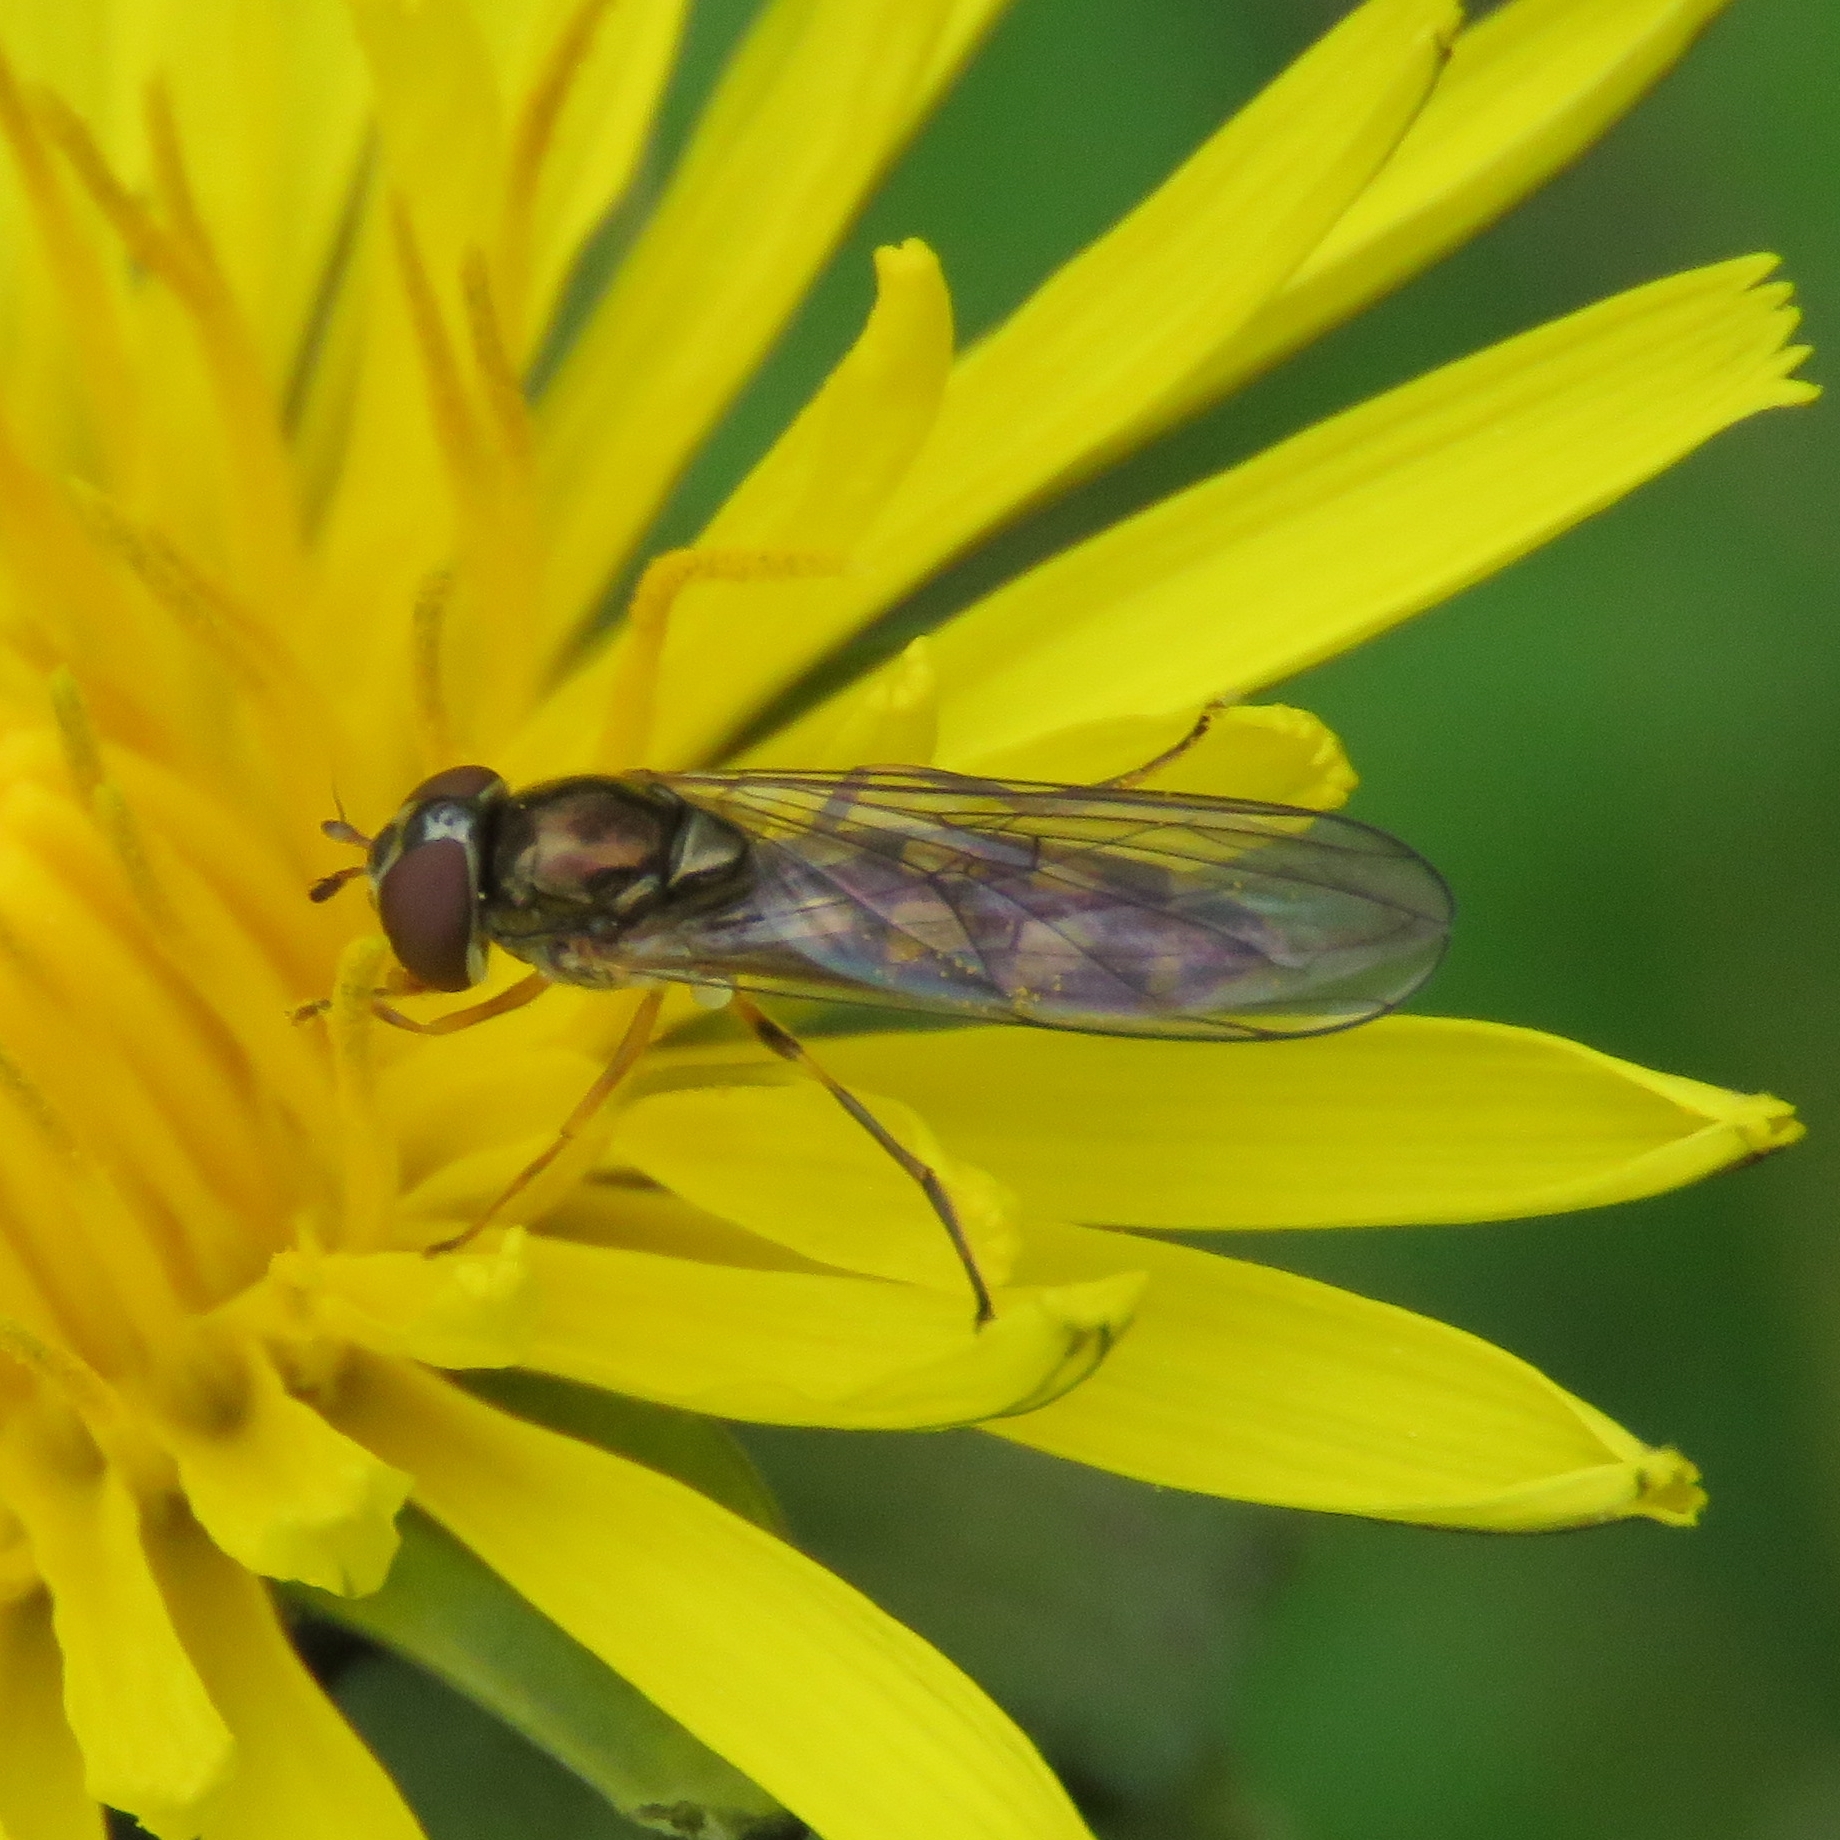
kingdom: Animalia
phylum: Arthropoda
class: Insecta
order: Diptera
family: Syrphidae
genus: Melanostoma
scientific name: Melanostoma scalare
